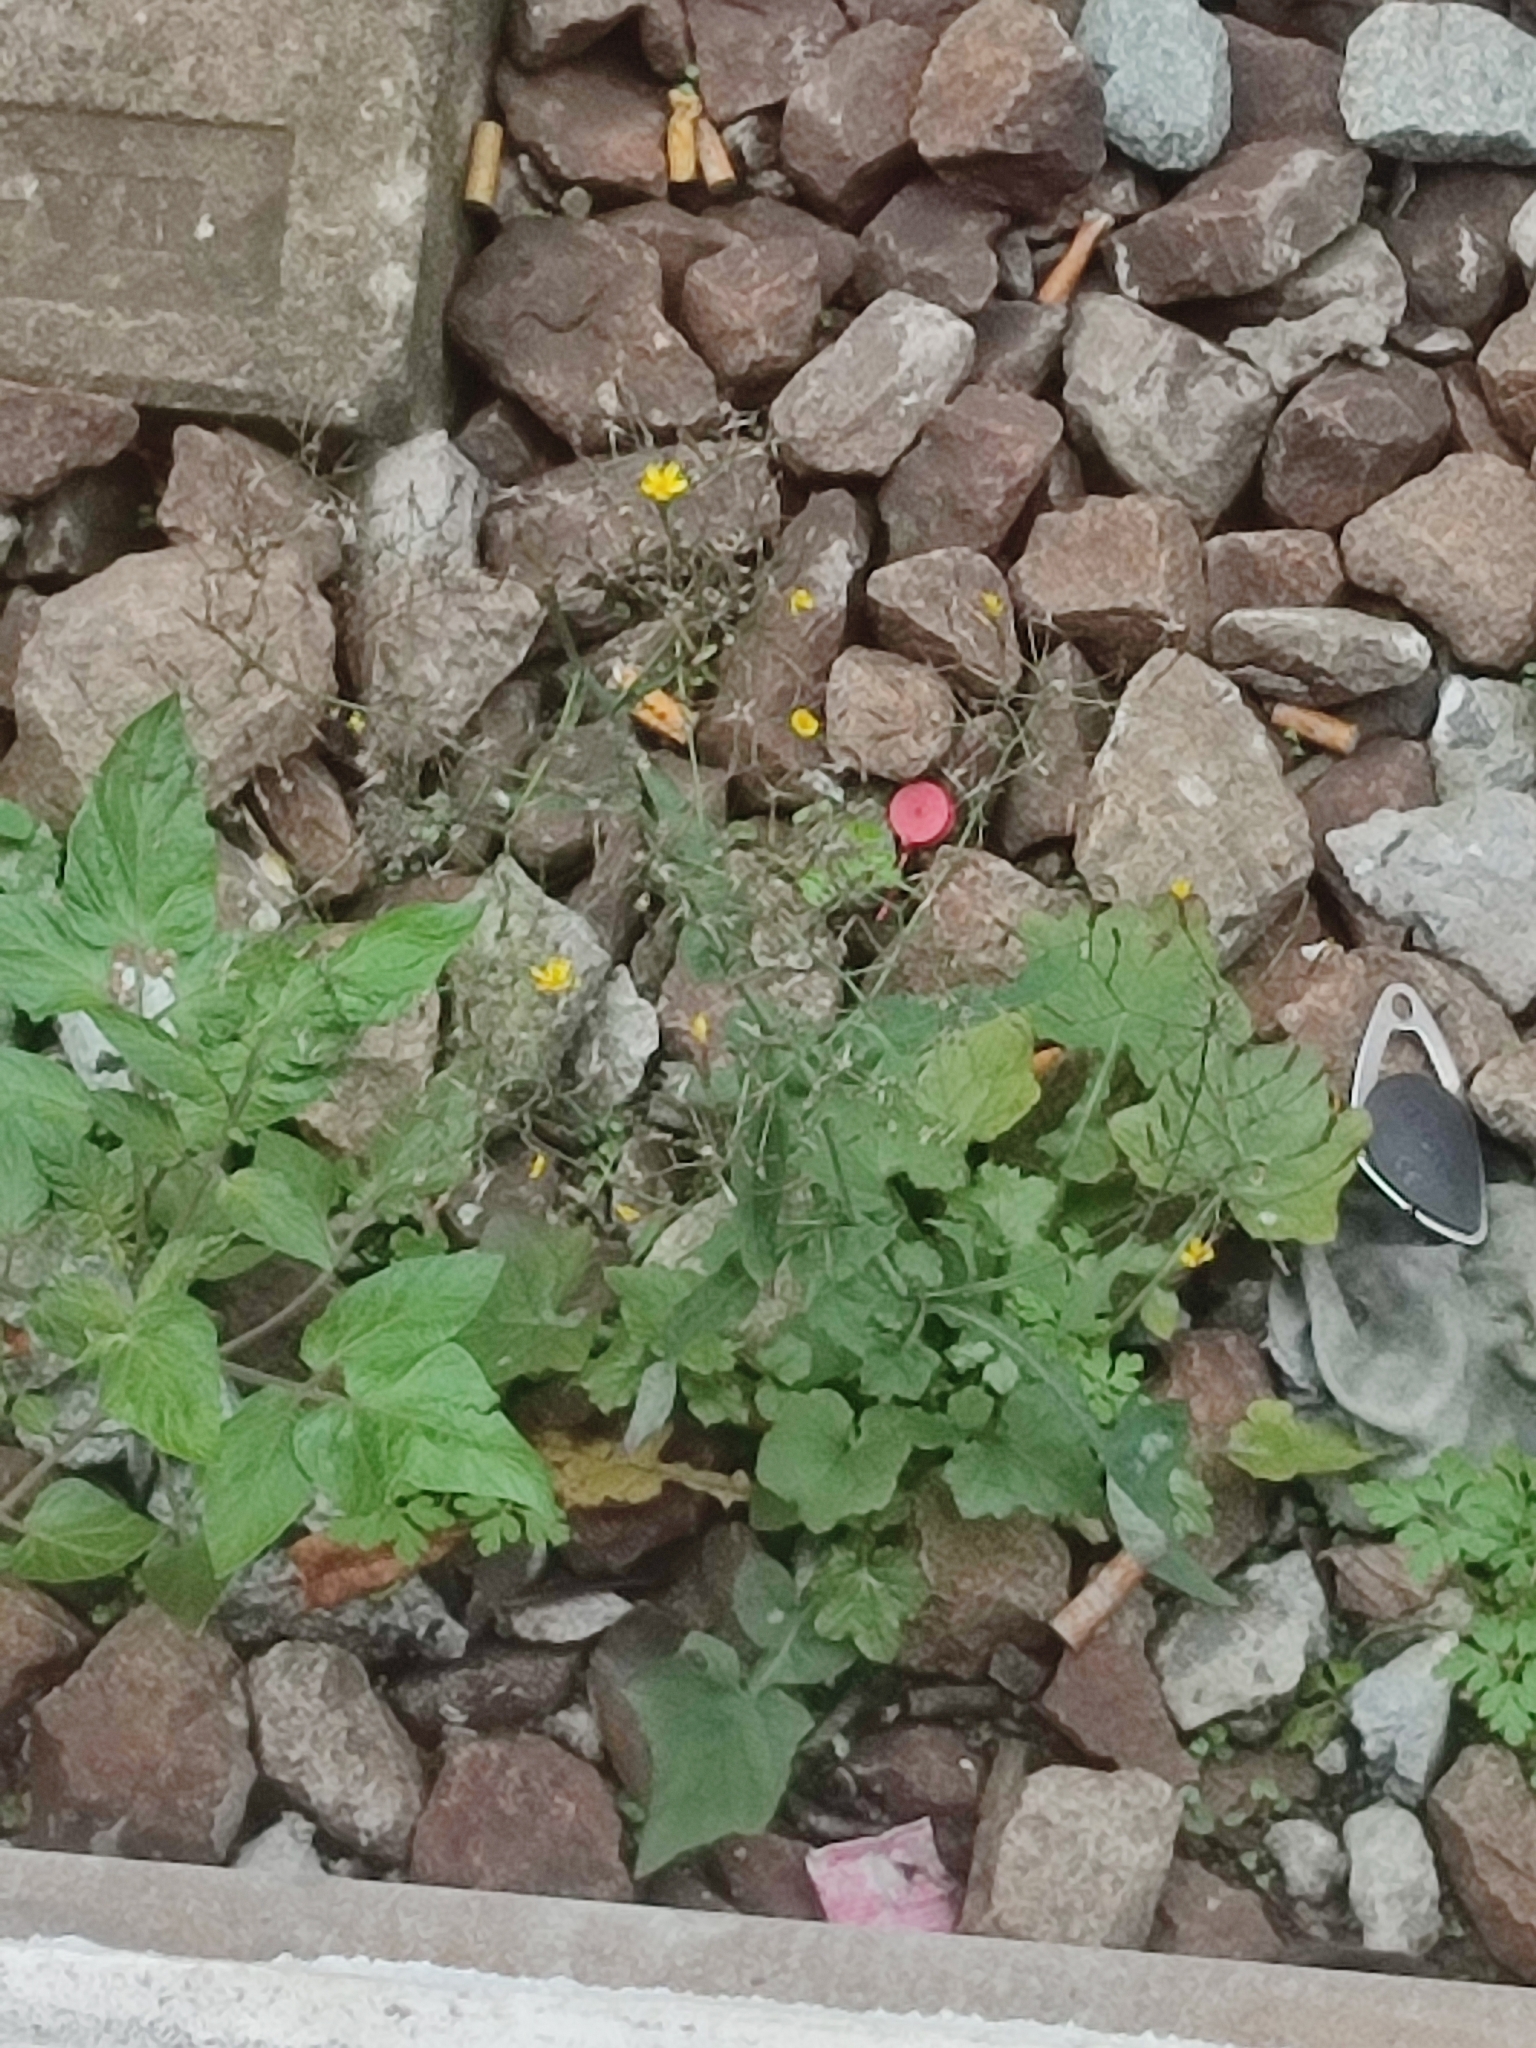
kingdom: Plantae
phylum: Tracheophyta
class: Magnoliopsida
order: Asterales
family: Asteraceae
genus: Mycelis
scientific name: Mycelis muralis
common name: Wall lettuce
